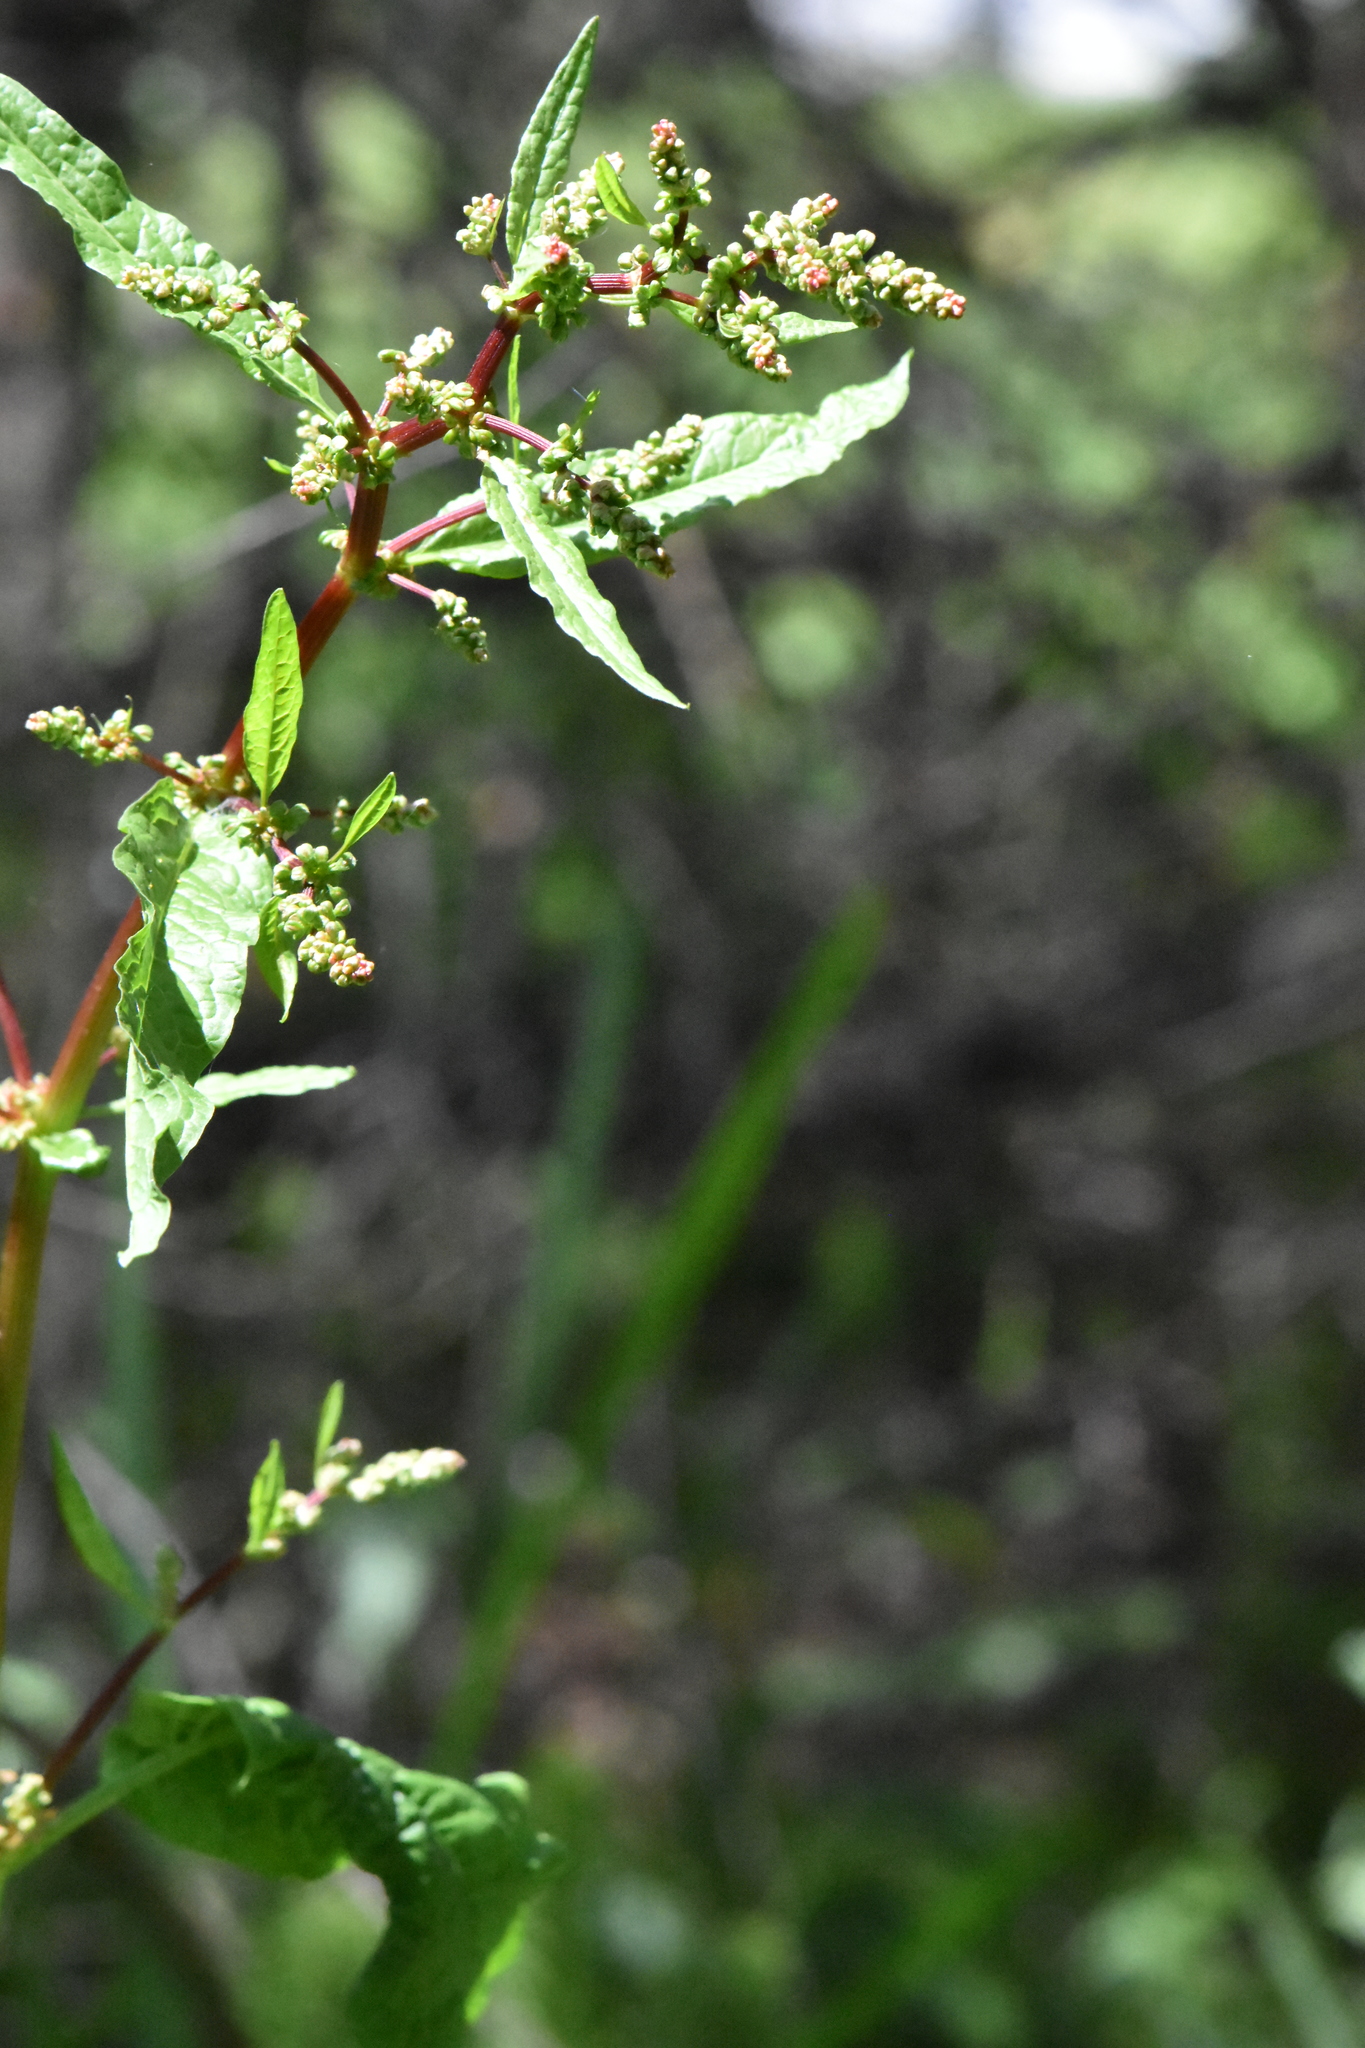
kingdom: Plantae
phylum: Tracheophyta
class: Magnoliopsida
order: Caryophyllales
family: Polygonaceae
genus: Rumex
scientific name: Rumex obtusifolius
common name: Bitter dock
